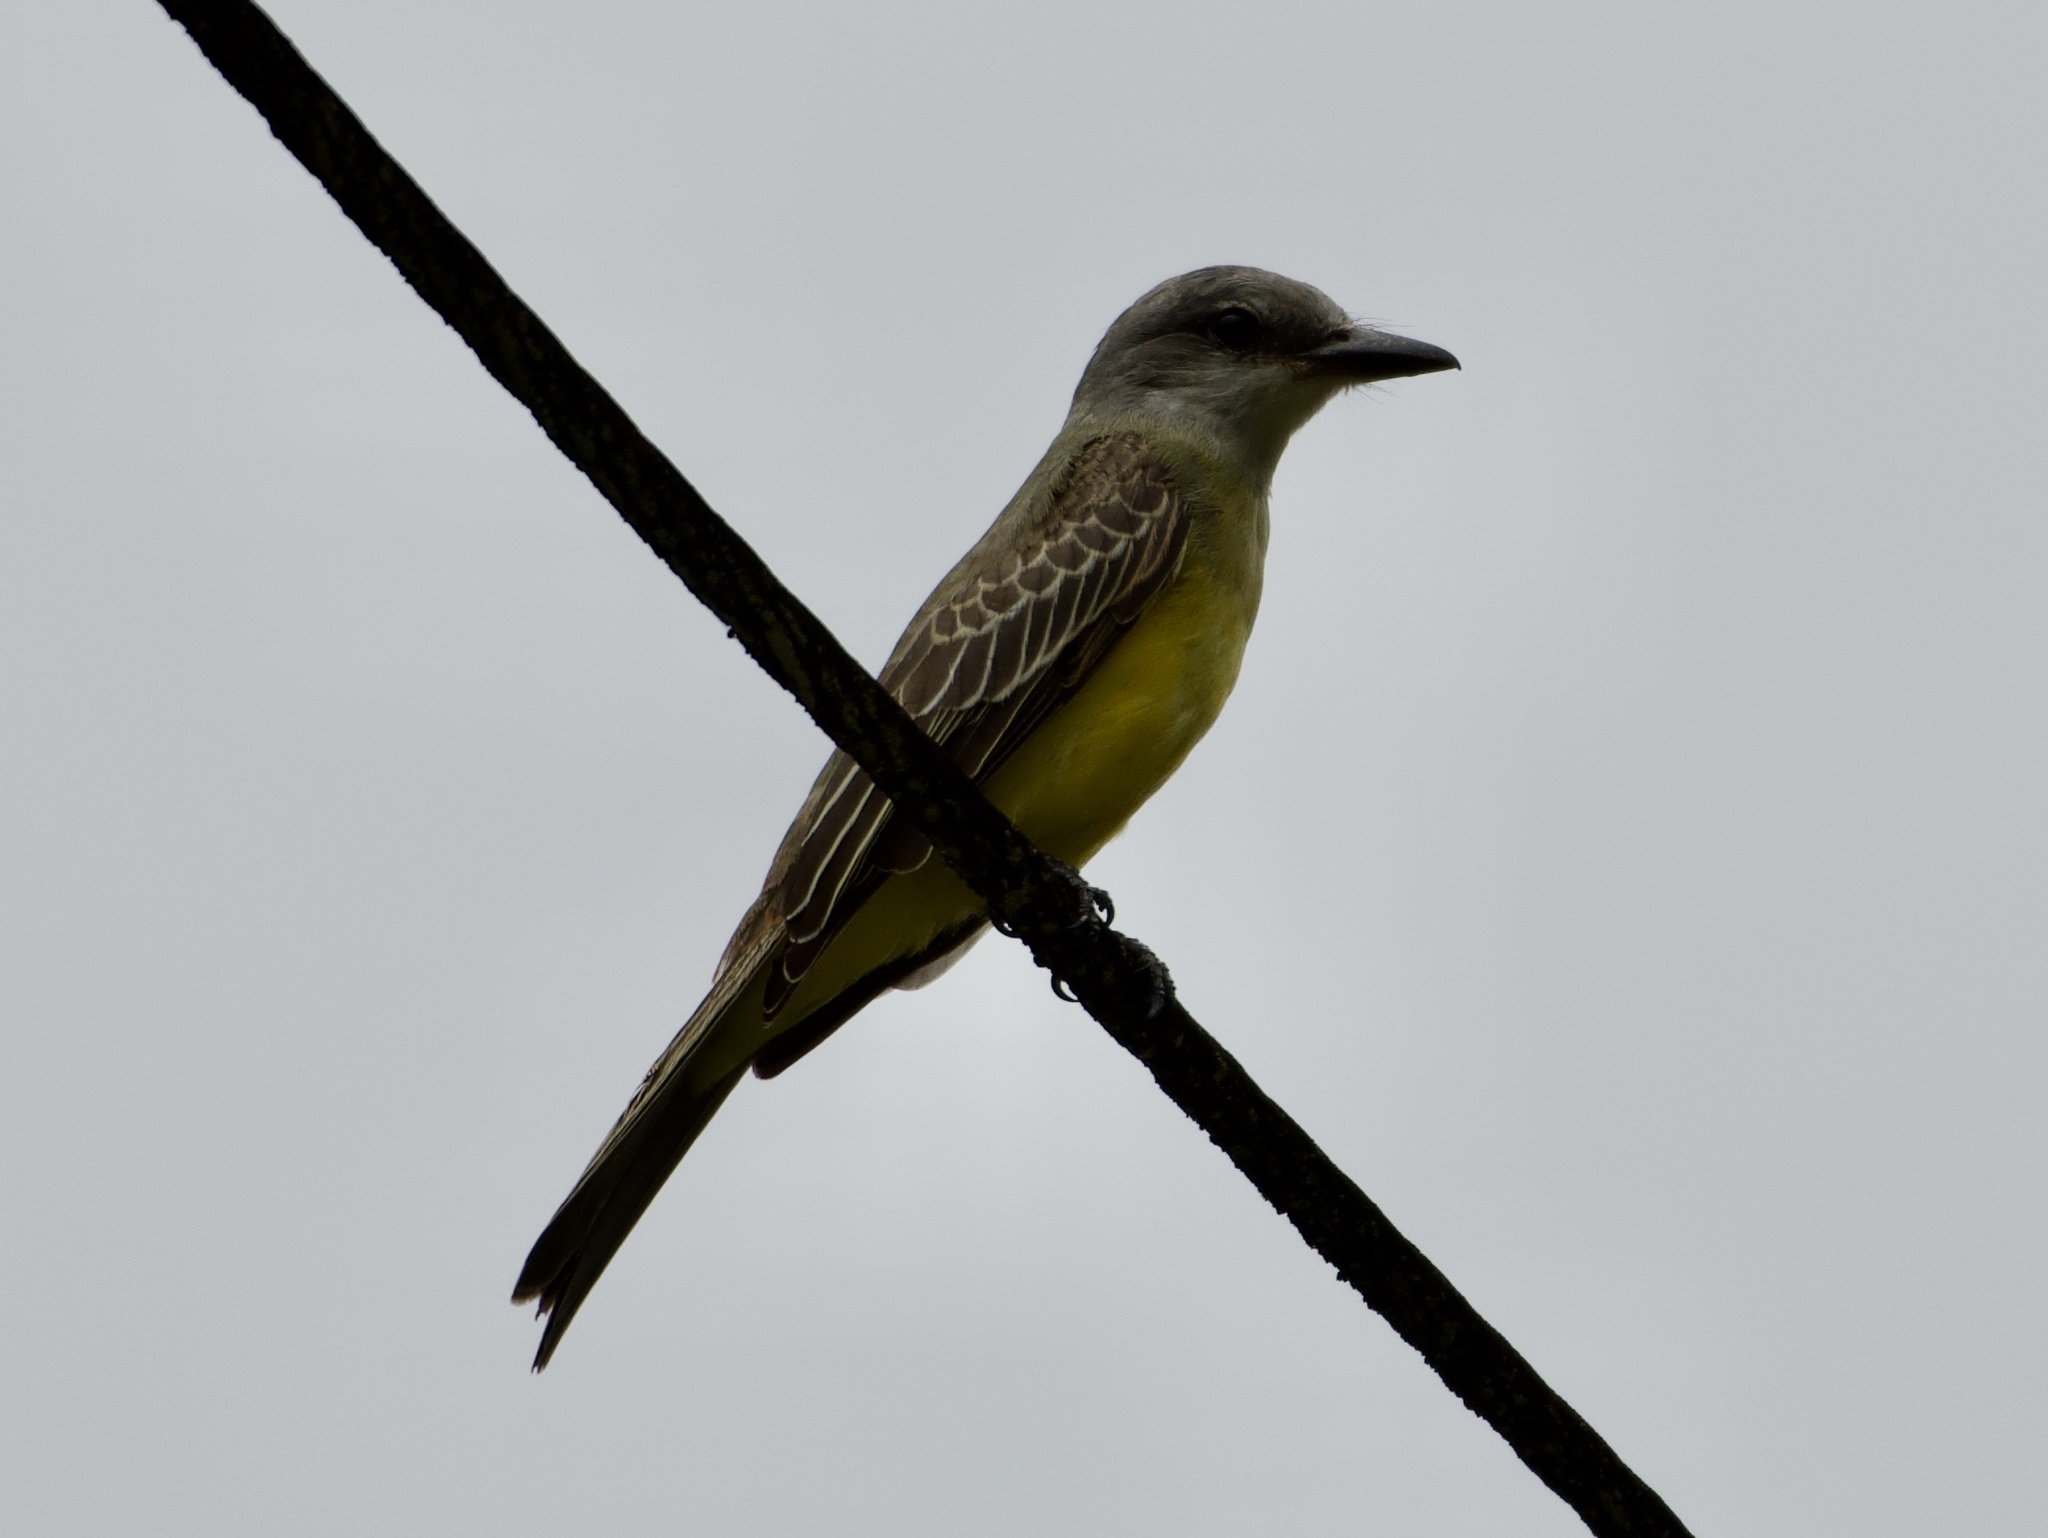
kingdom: Animalia
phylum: Chordata
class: Aves
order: Passeriformes
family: Tyrannidae
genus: Tyrannus
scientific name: Tyrannus melancholicus
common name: Tropical kingbird
